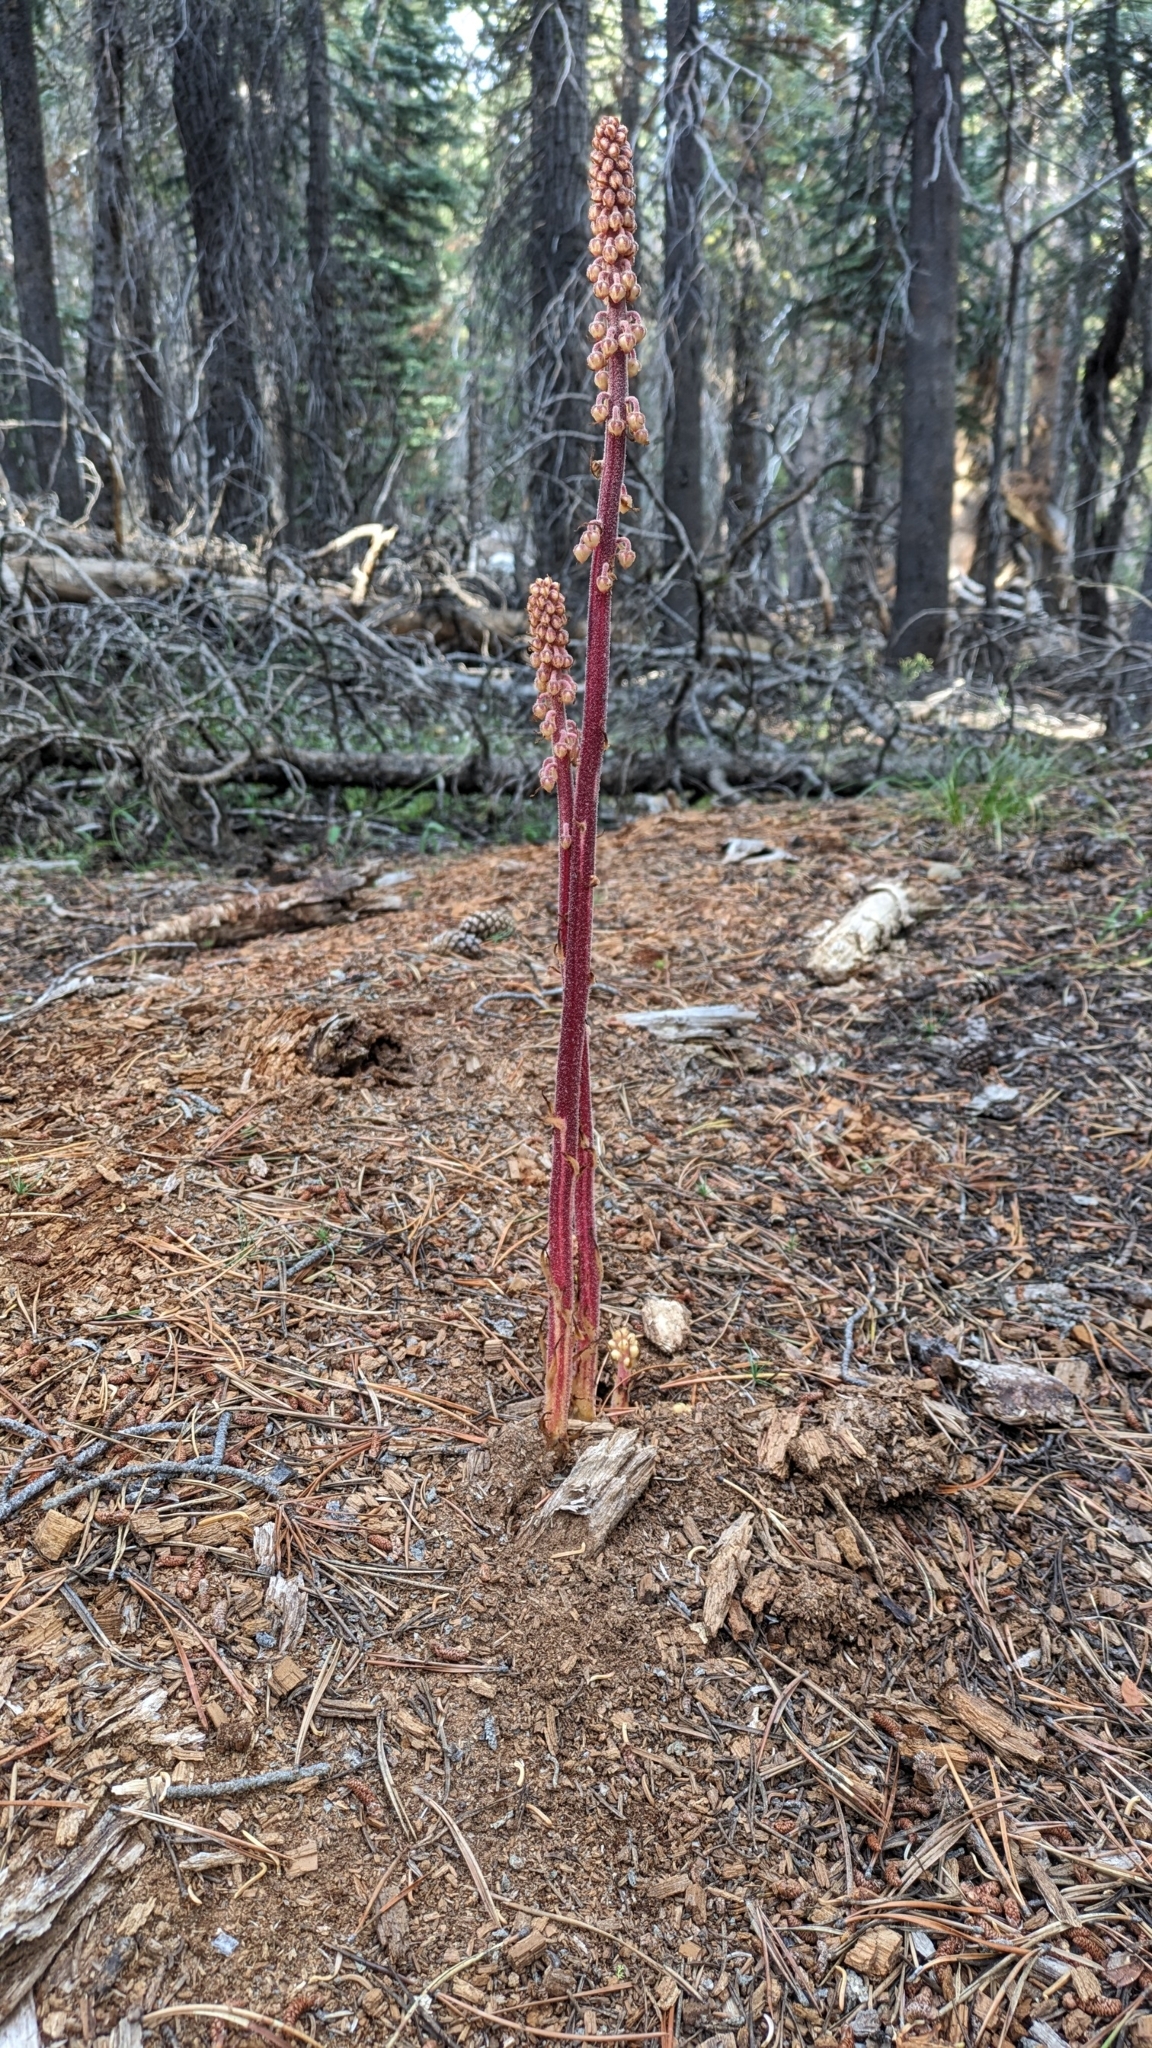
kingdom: Plantae
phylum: Tracheophyta
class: Magnoliopsida
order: Ericales
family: Ericaceae
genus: Pterospora
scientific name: Pterospora andromedea
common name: Giant bird's-nest
